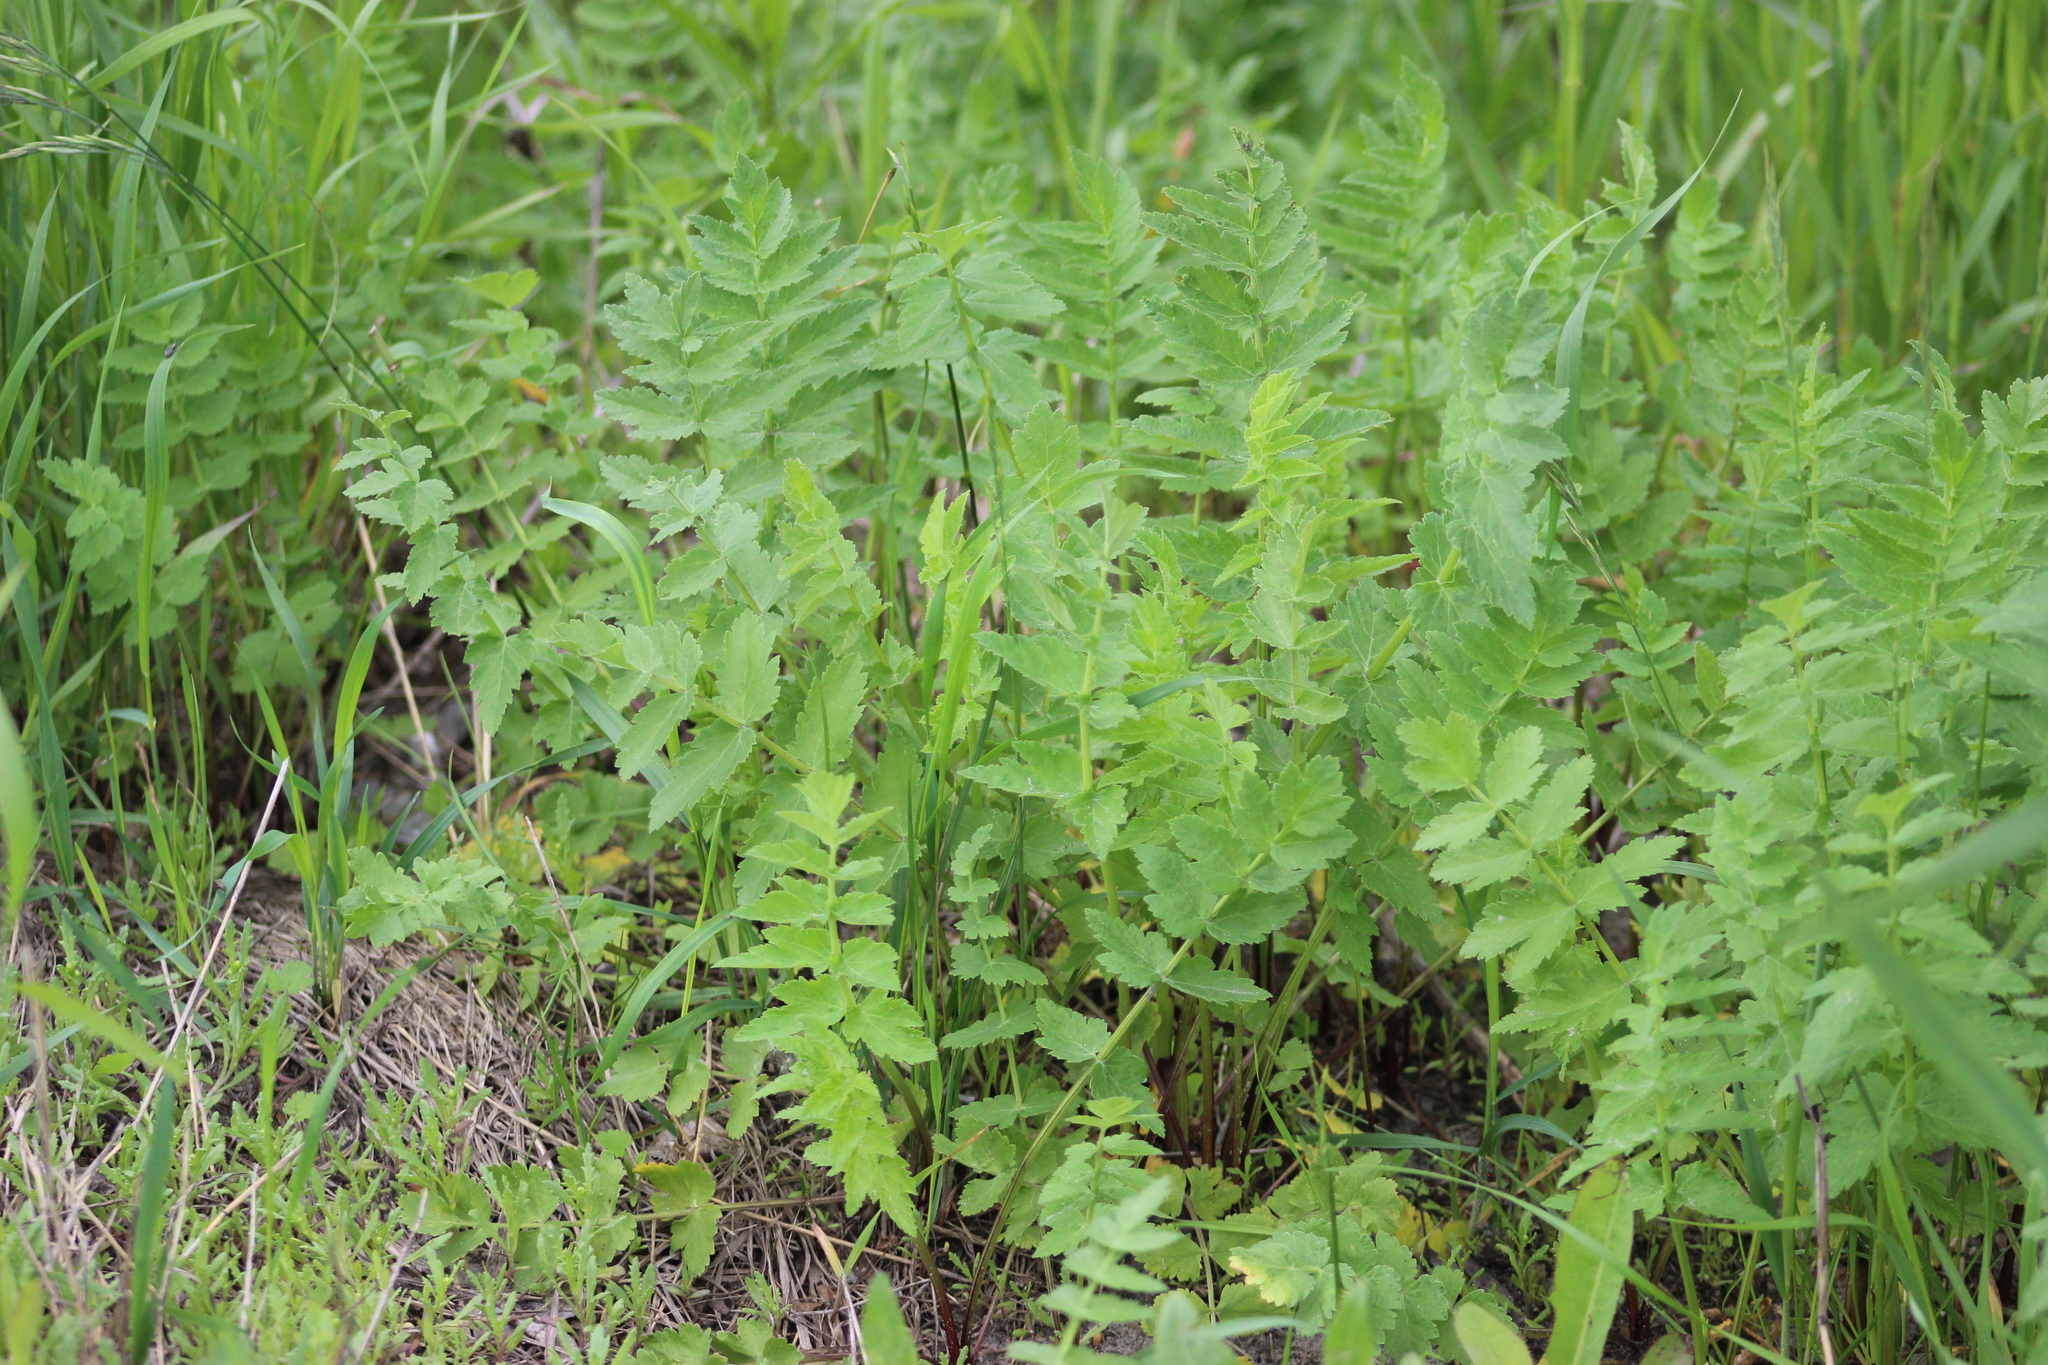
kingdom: Plantae
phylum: Tracheophyta
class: Magnoliopsida
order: Apiales
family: Apiaceae
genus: Pastinaca
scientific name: Pastinaca sativa
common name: Wild parsnip
